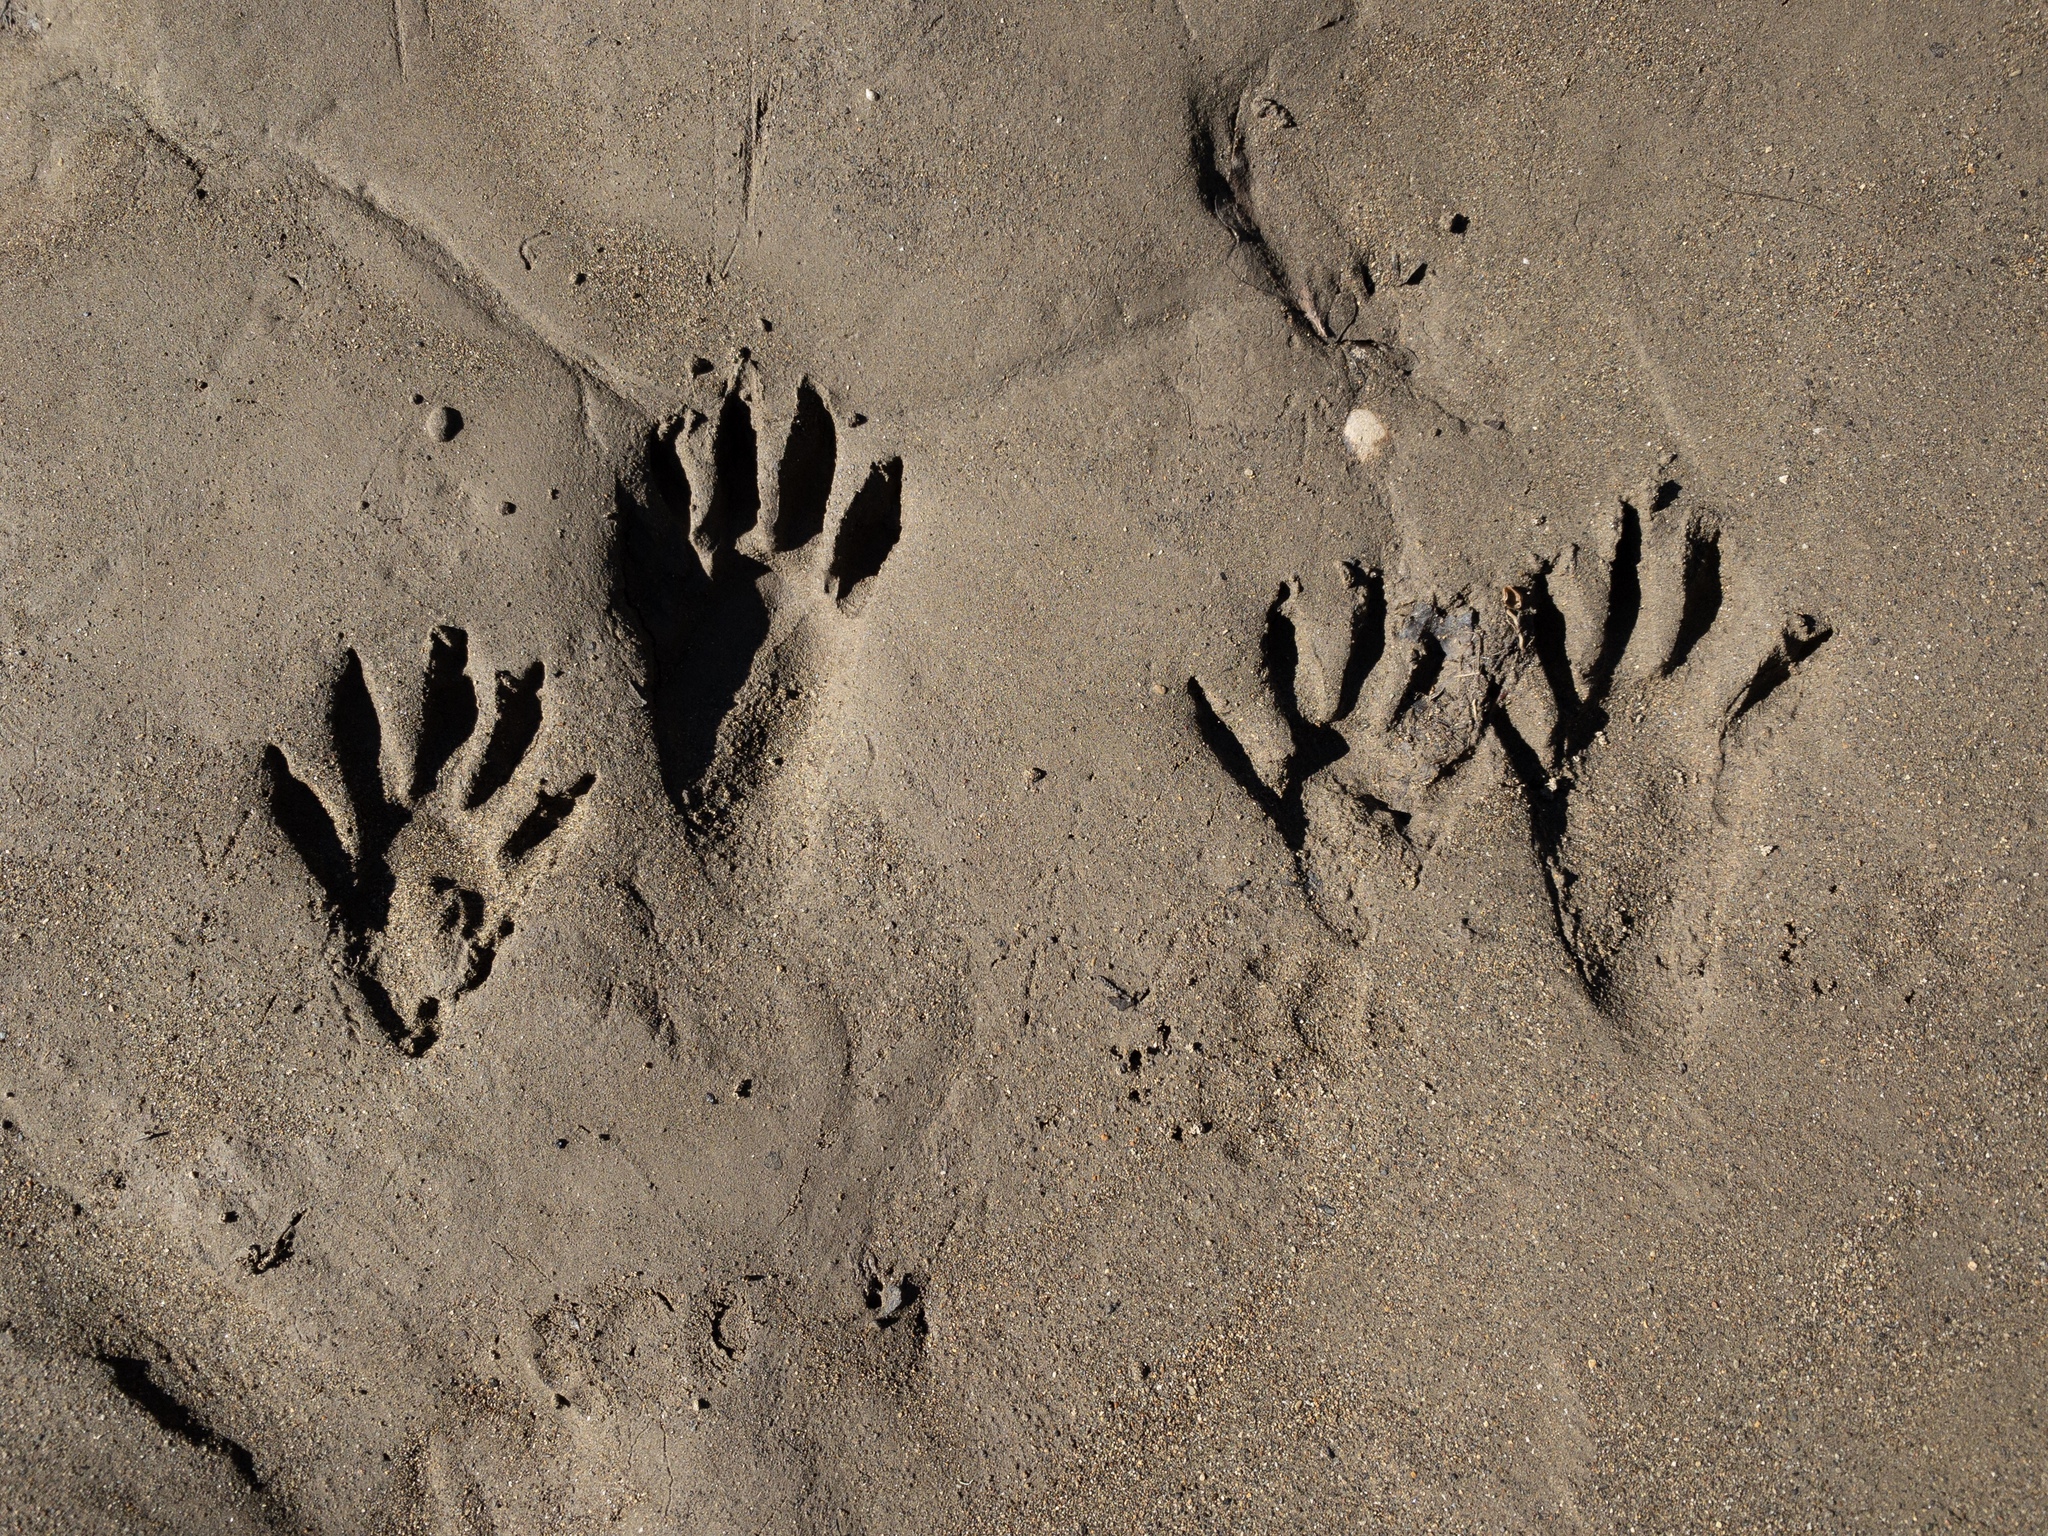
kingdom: Animalia
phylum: Chordata
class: Mammalia
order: Carnivora
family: Procyonidae
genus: Procyon
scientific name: Procyon lotor
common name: Raccoon
